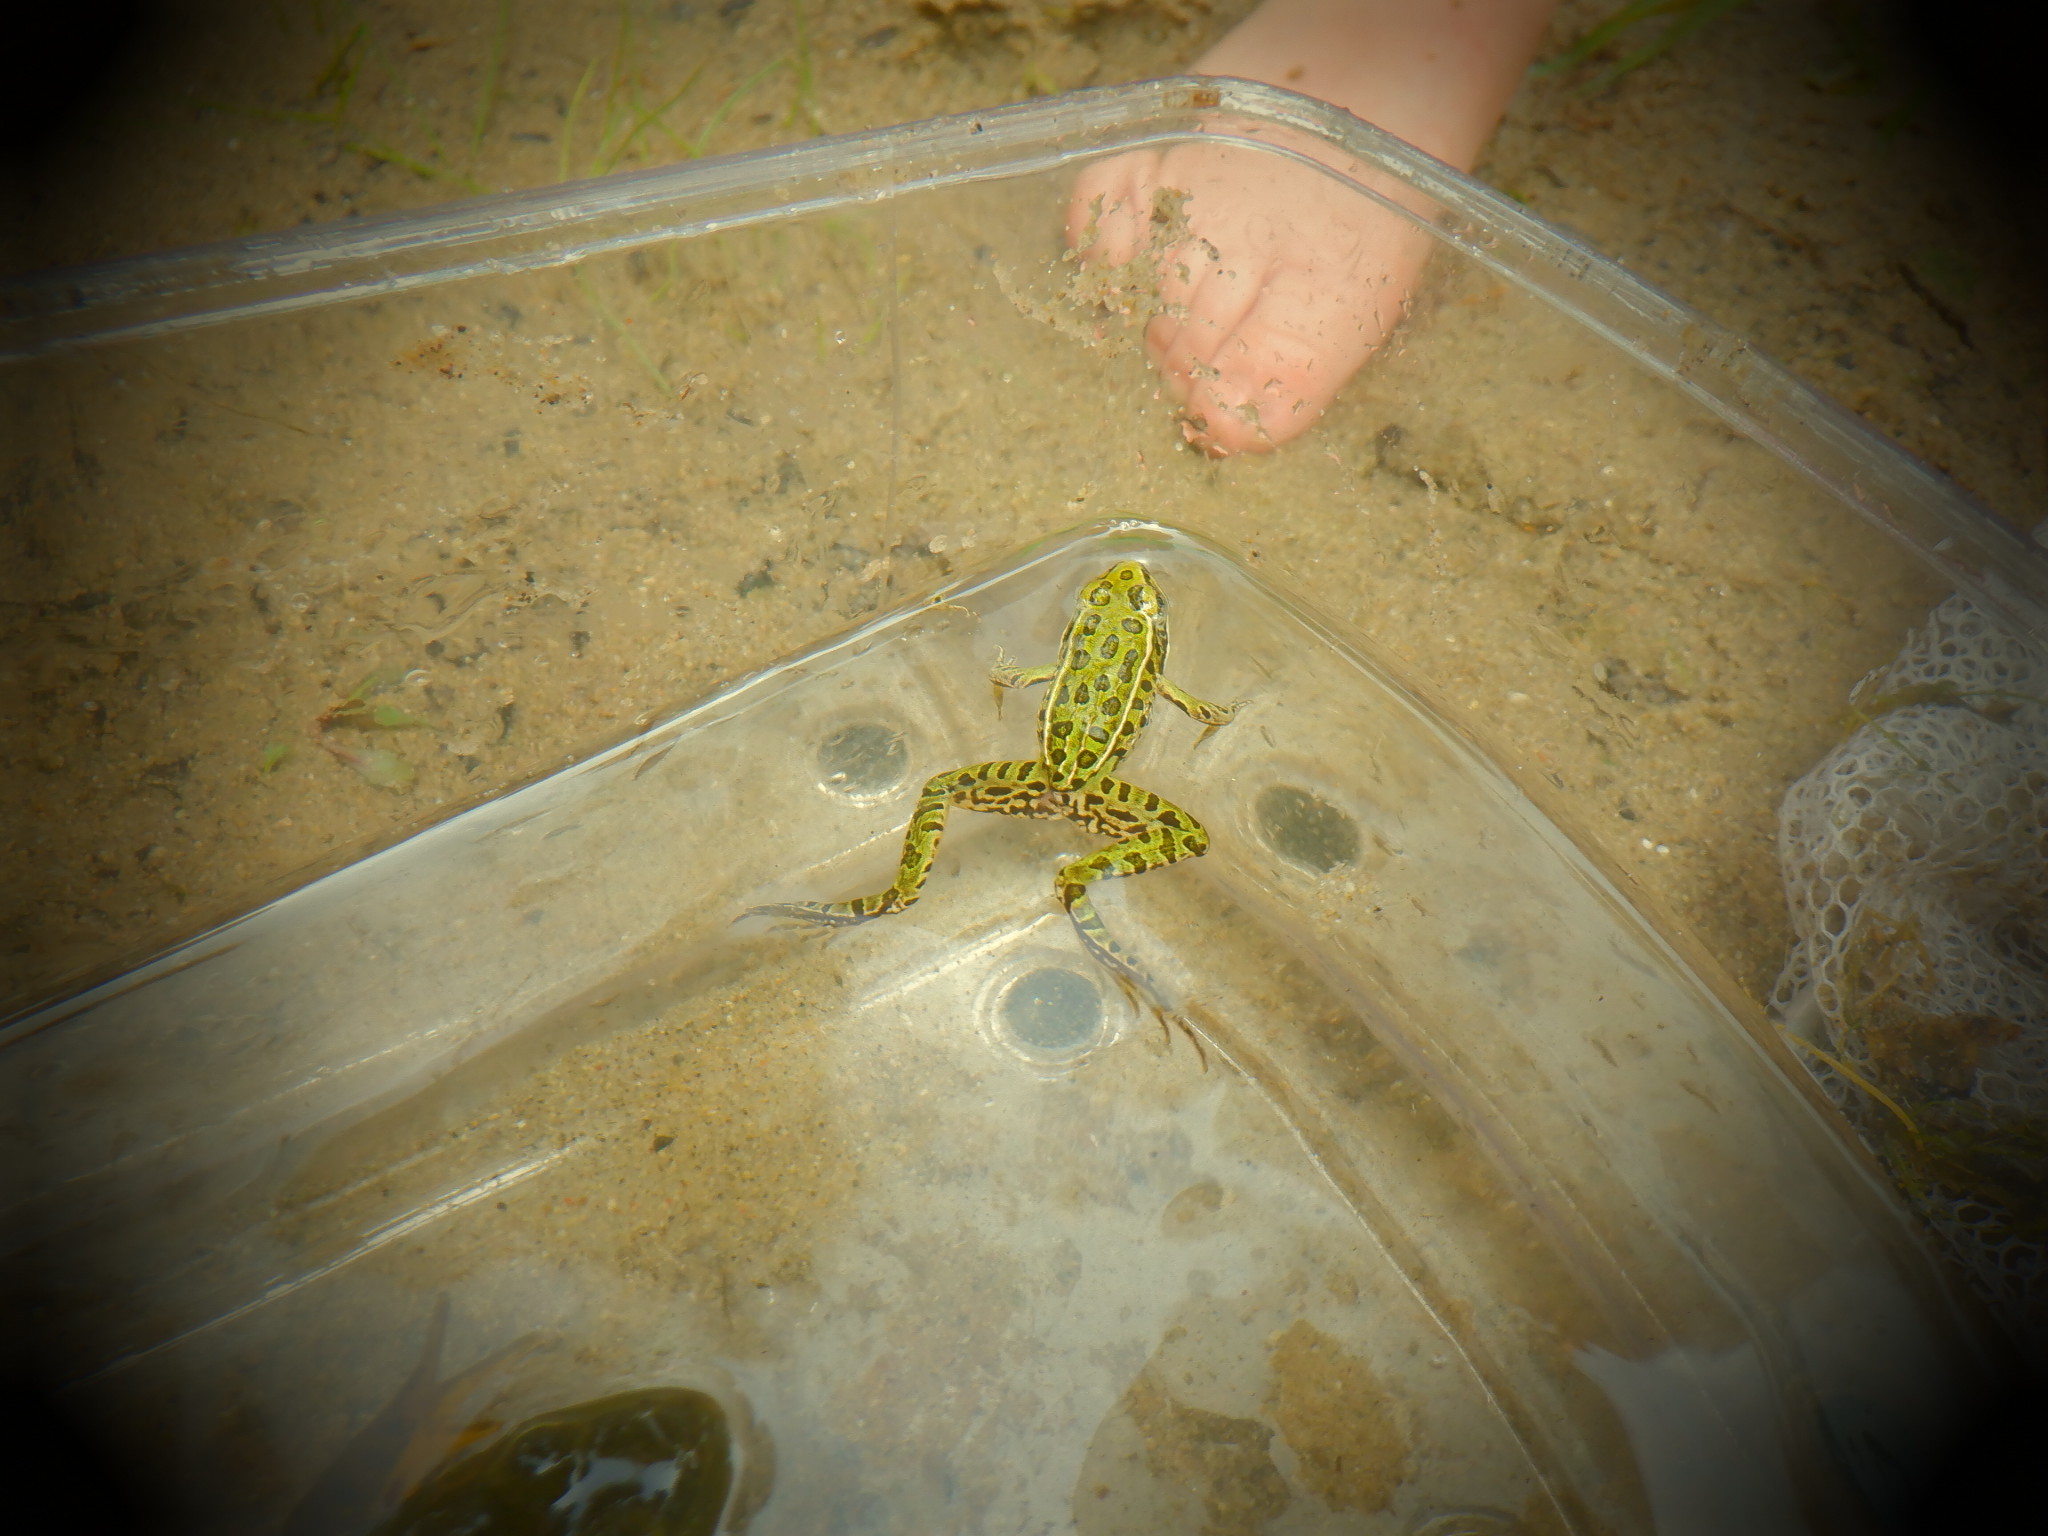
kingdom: Animalia
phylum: Chordata
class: Amphibia
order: Anura
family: Ranidae
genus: Lithobates
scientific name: Lithobates pipiens
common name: Northern leopard frog
